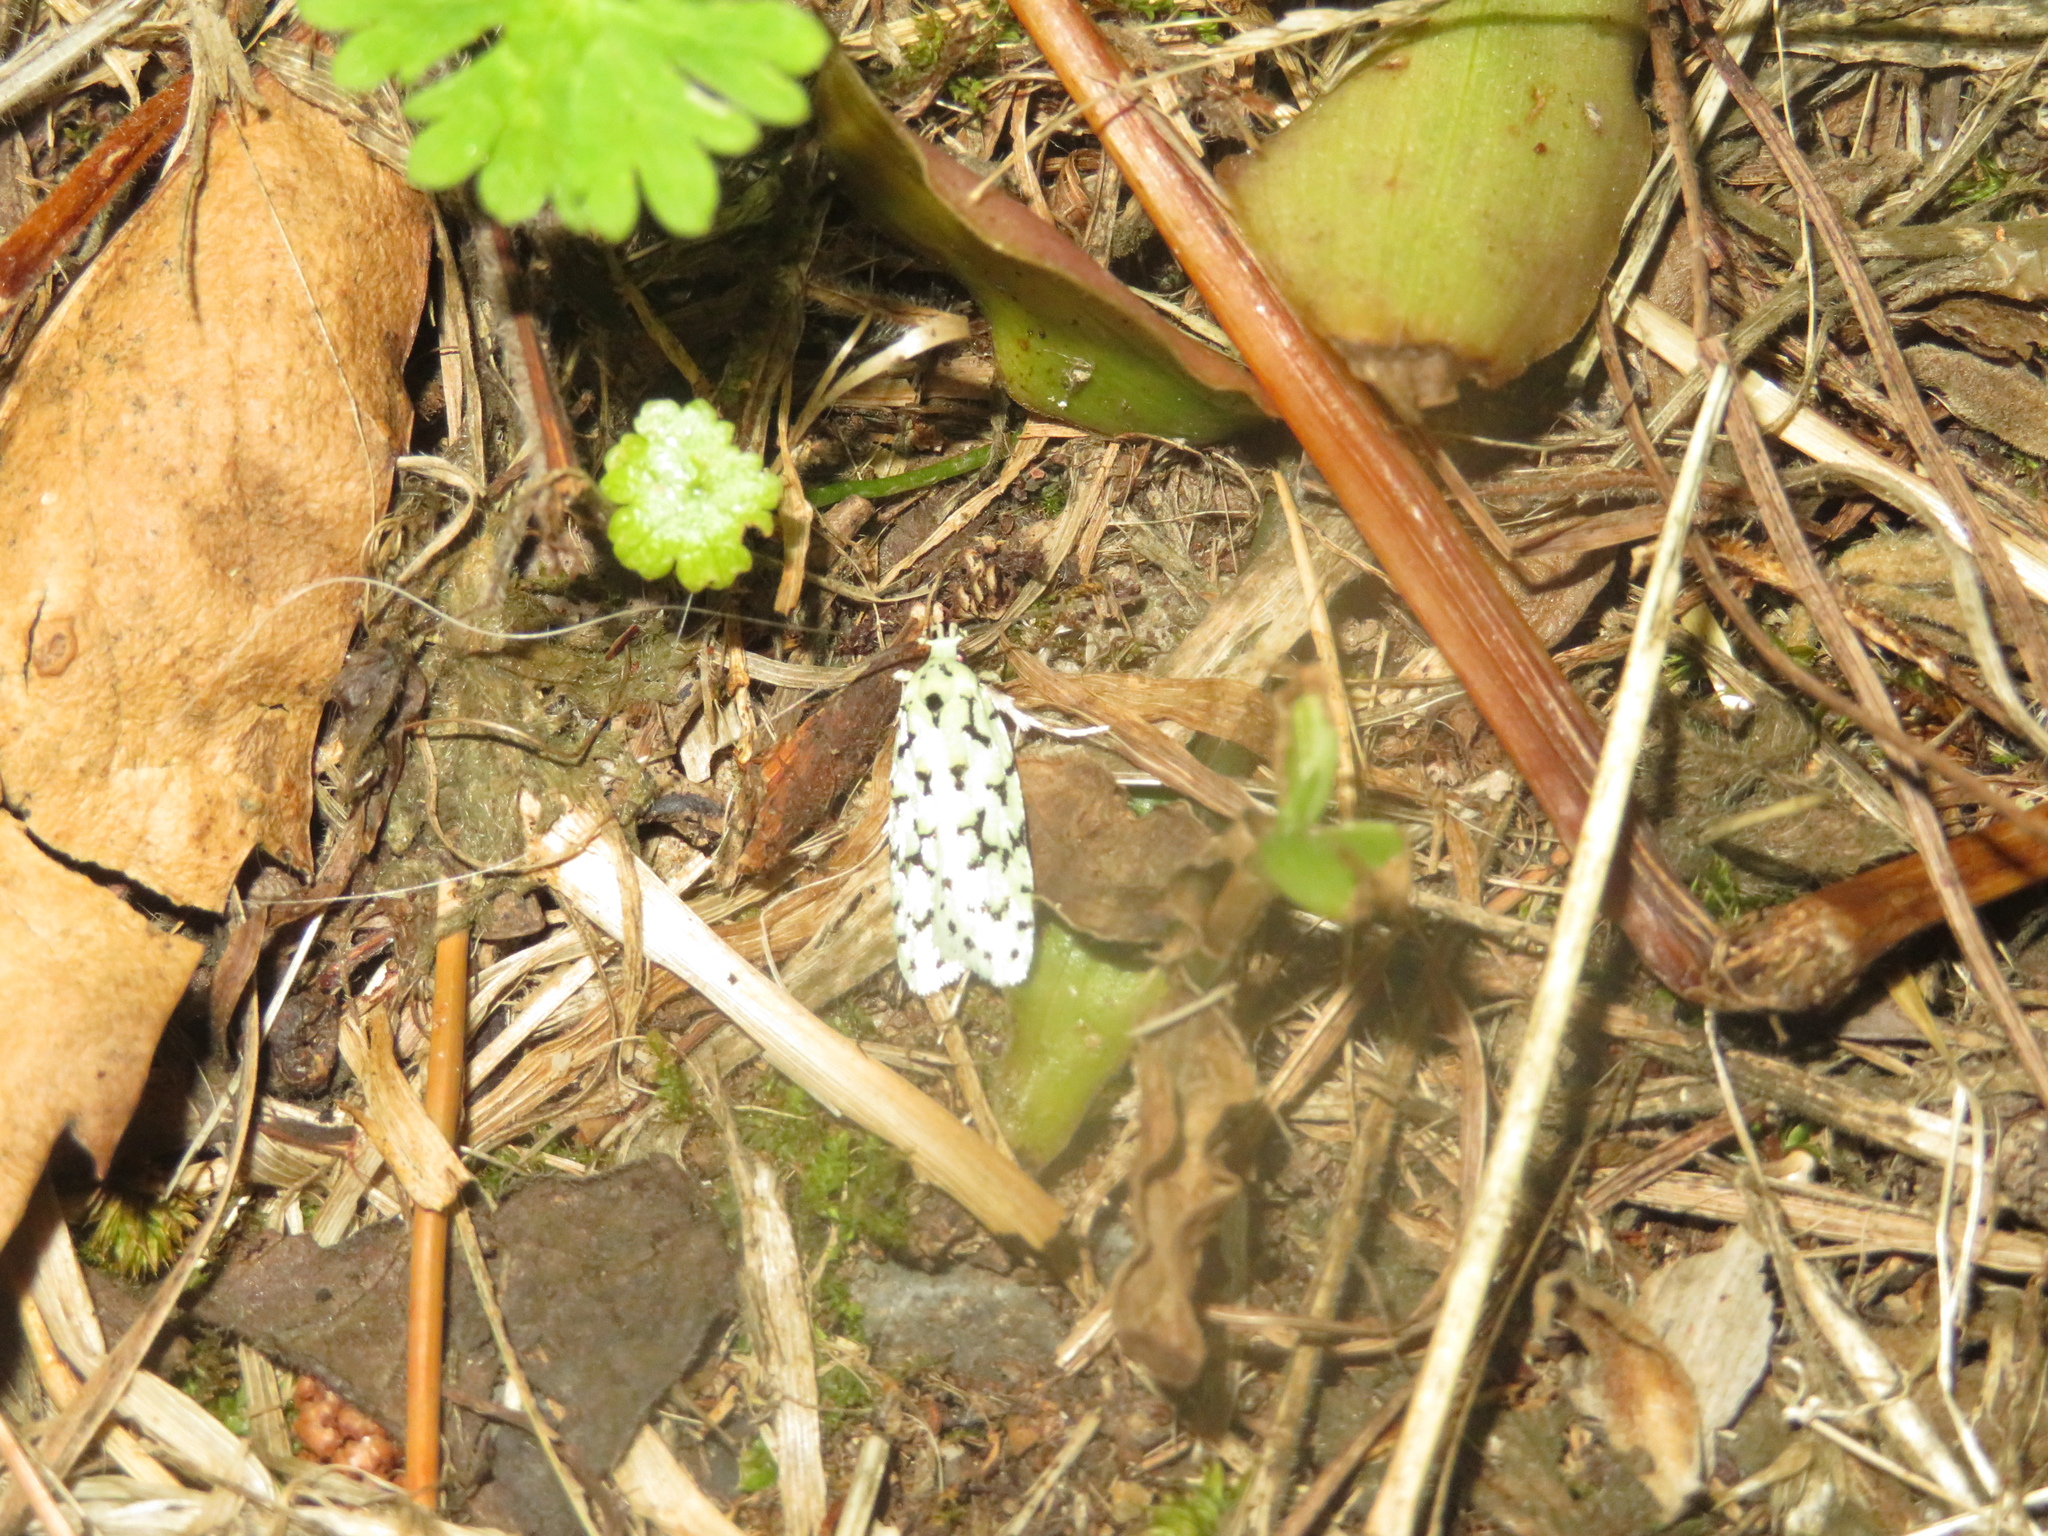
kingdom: Animalia
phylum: Arthropoda
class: Insecta
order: Lepidoptera
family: Oecophoridae
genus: Izatha
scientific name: Izatha huttoni
